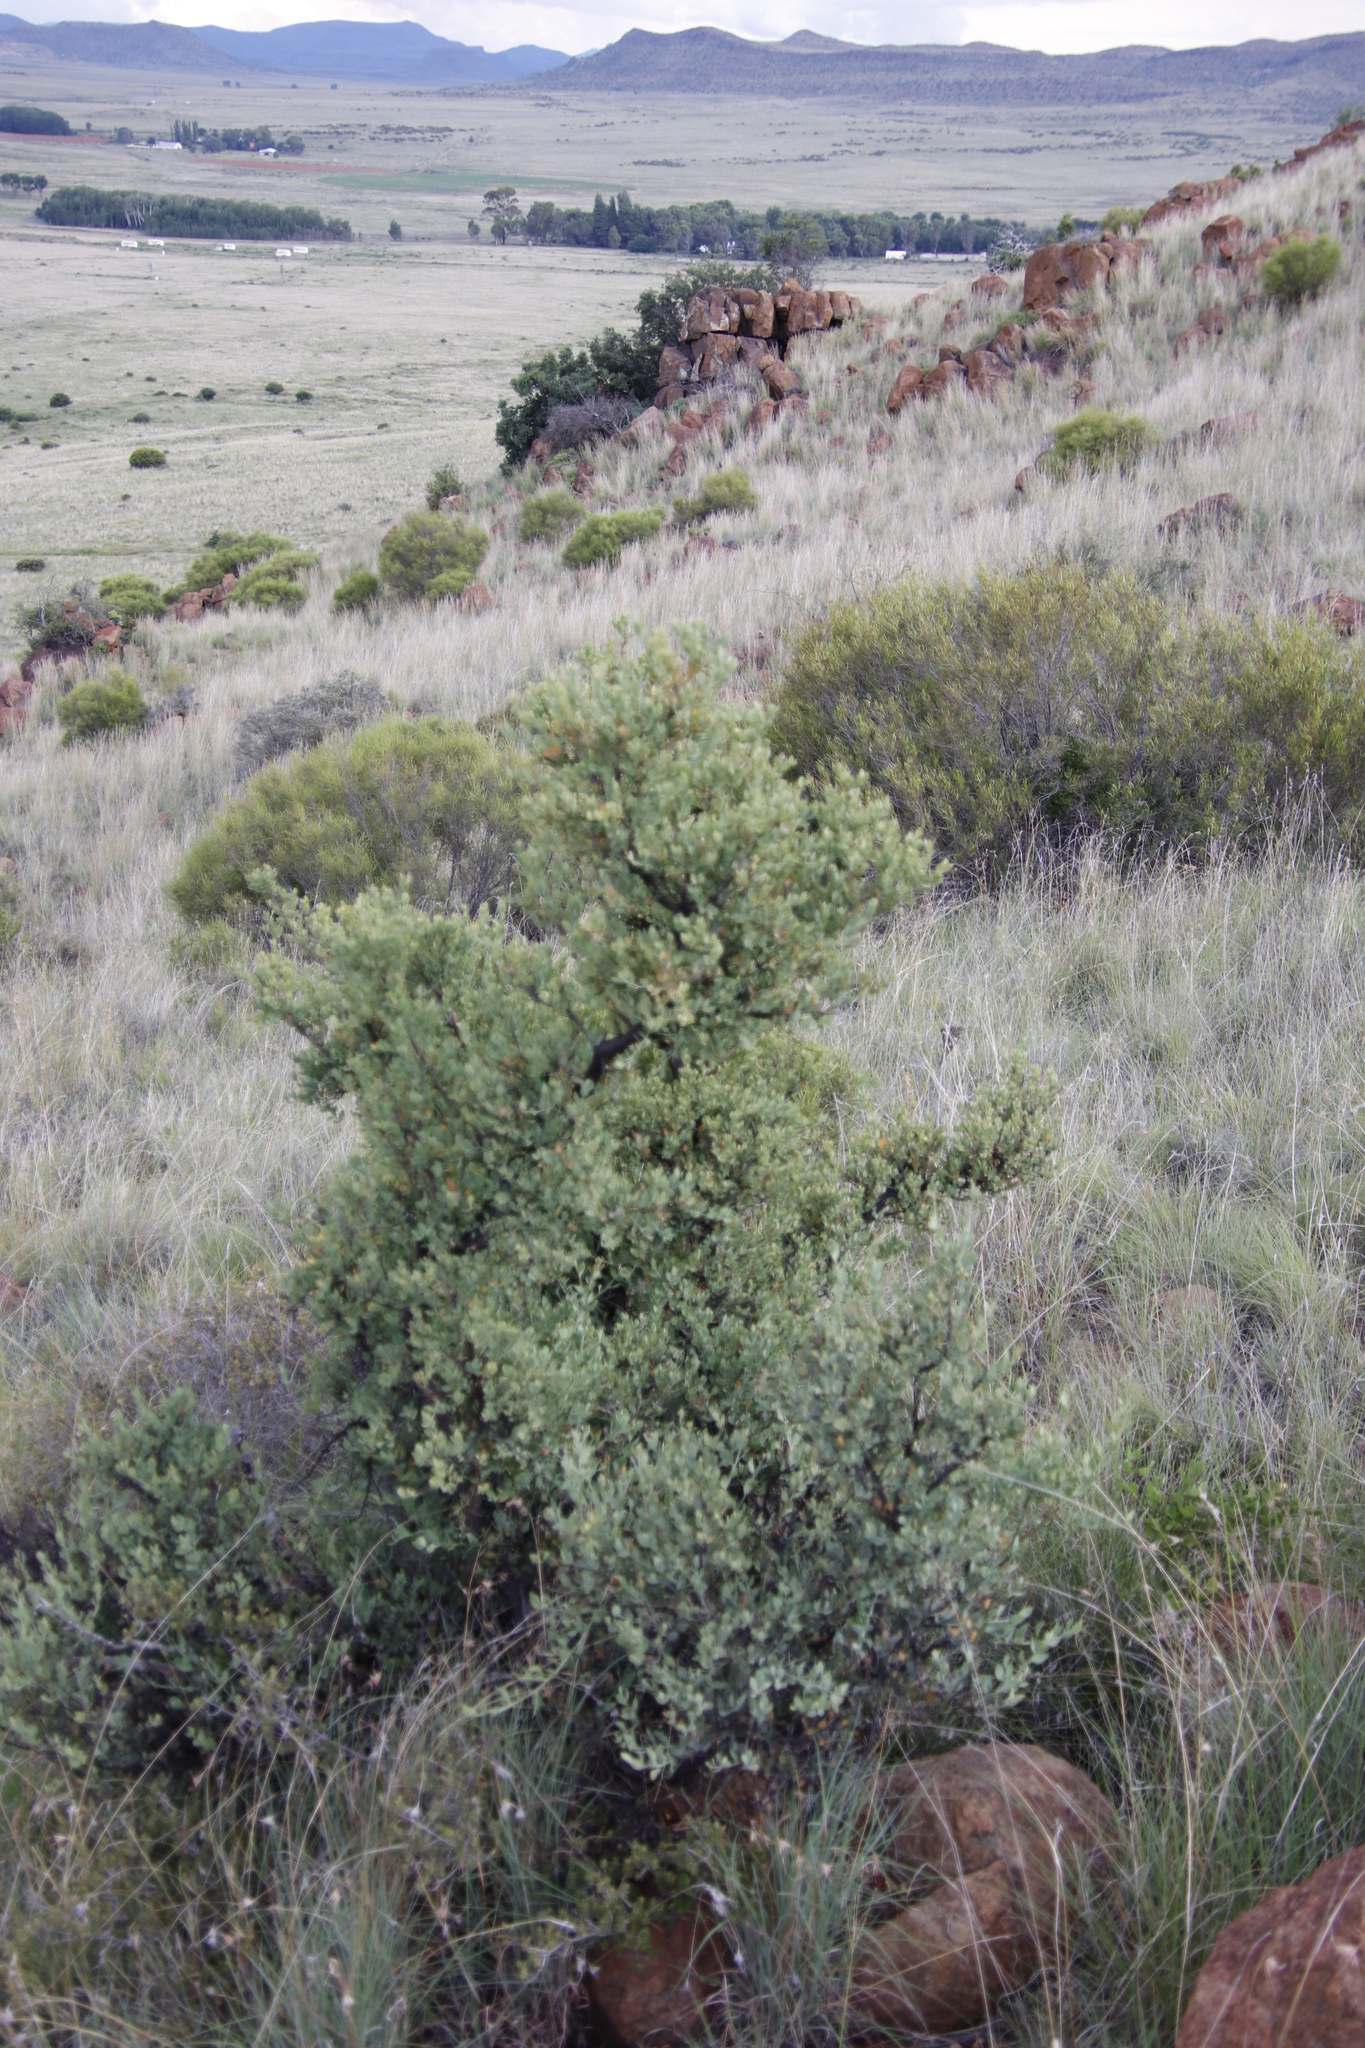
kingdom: Plantae
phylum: Tracheophyta
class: Magnoliopsida
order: Santalales
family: Santalaceae
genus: Osyris
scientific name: Osyris lanceolata
